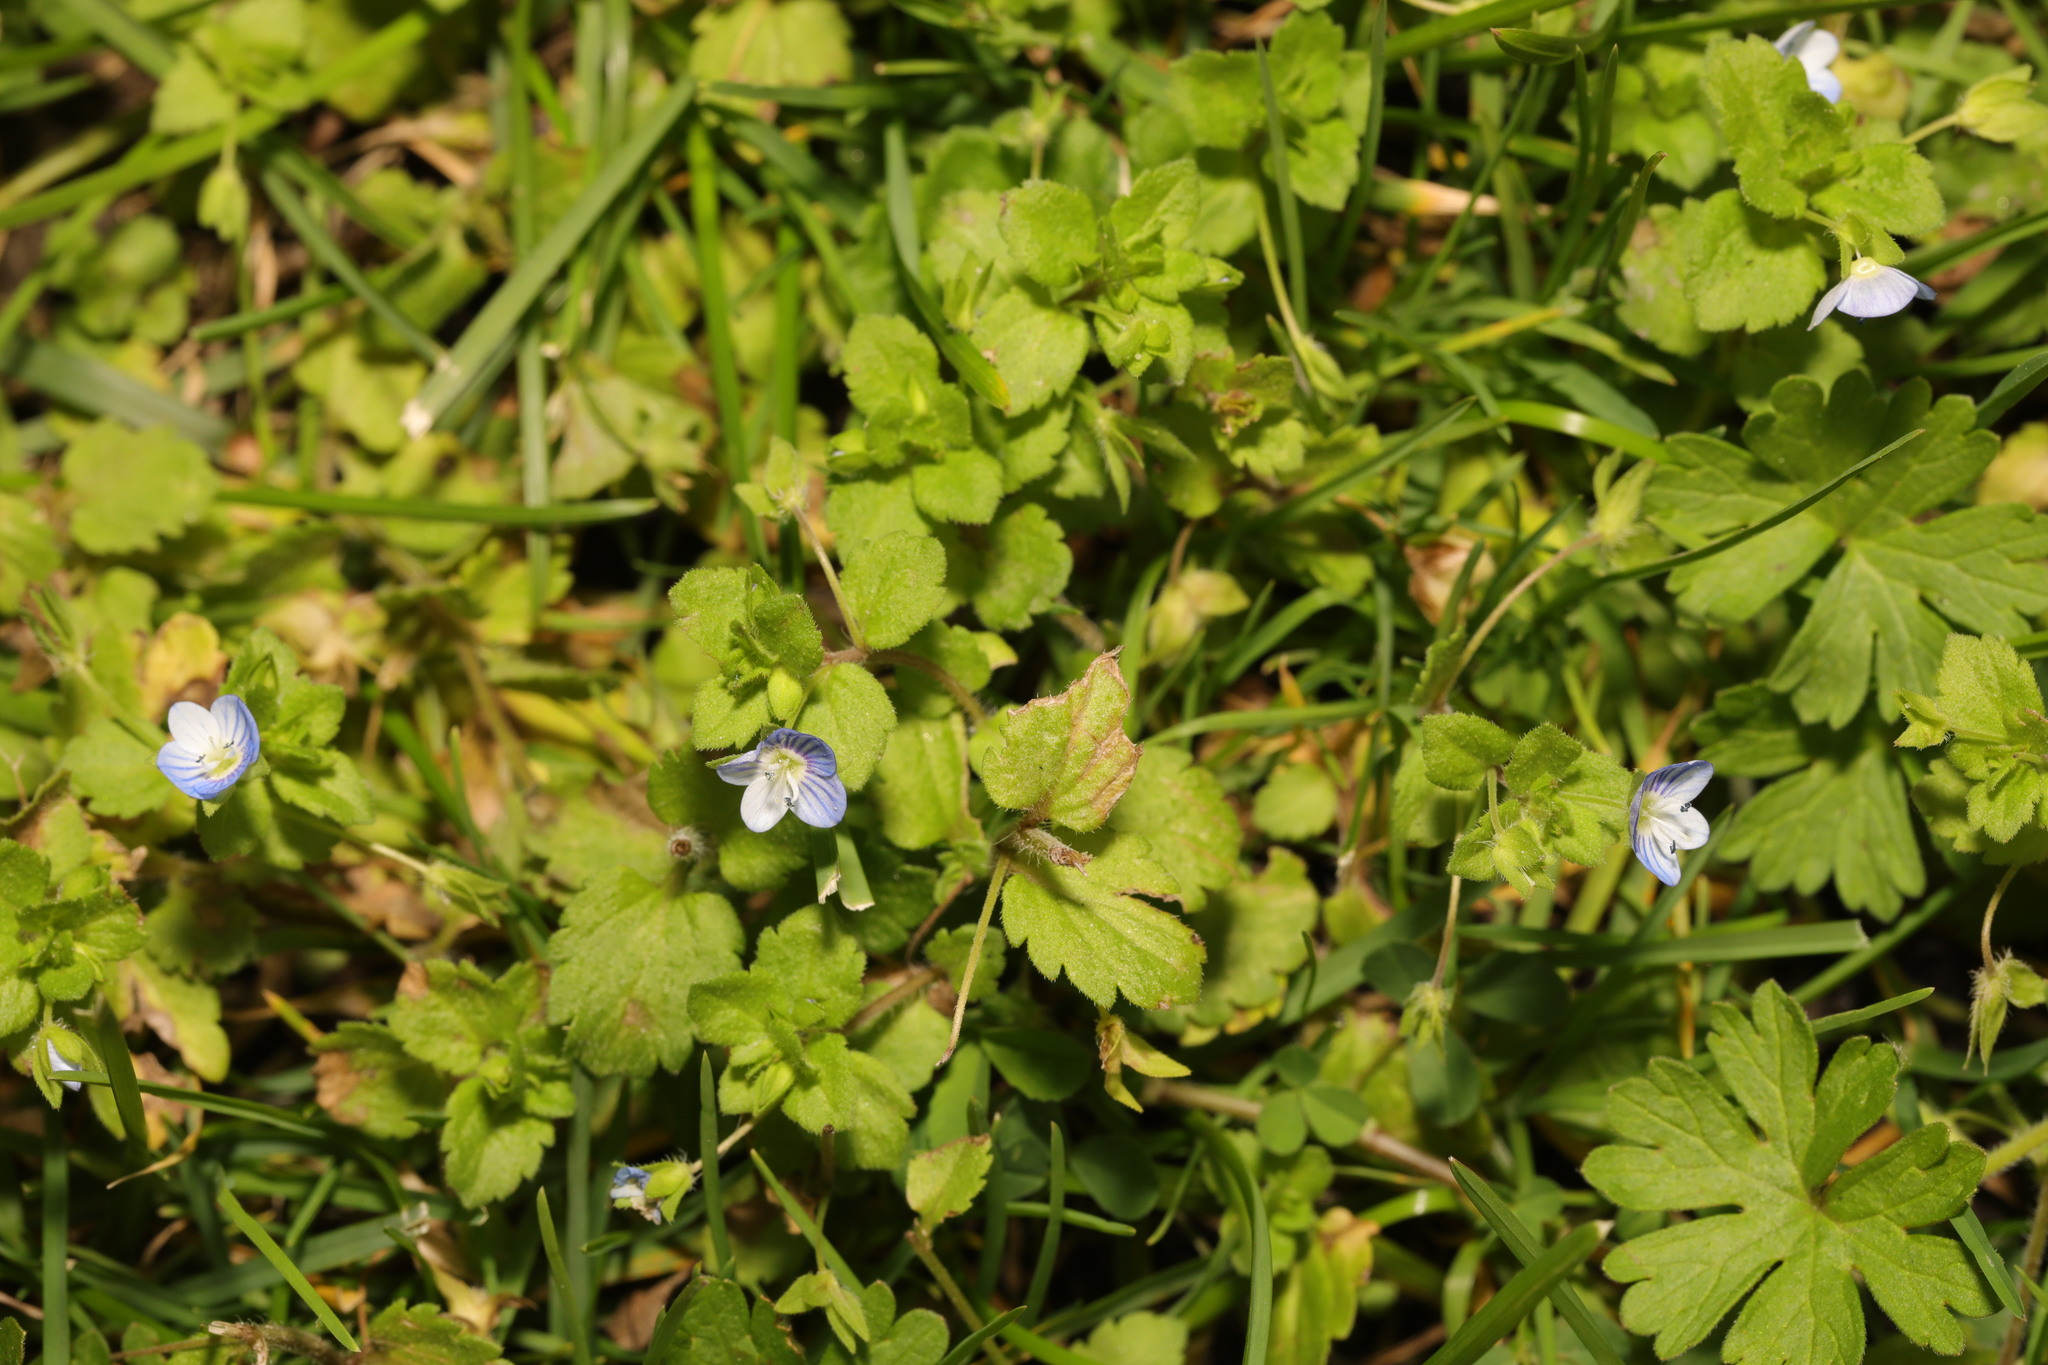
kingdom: Plantae
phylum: Tracheophyta
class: Magnoliopsida
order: Lamiales
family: Plantaginaceae
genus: Veronica
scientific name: Veronica persica
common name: Common field-speedwell
